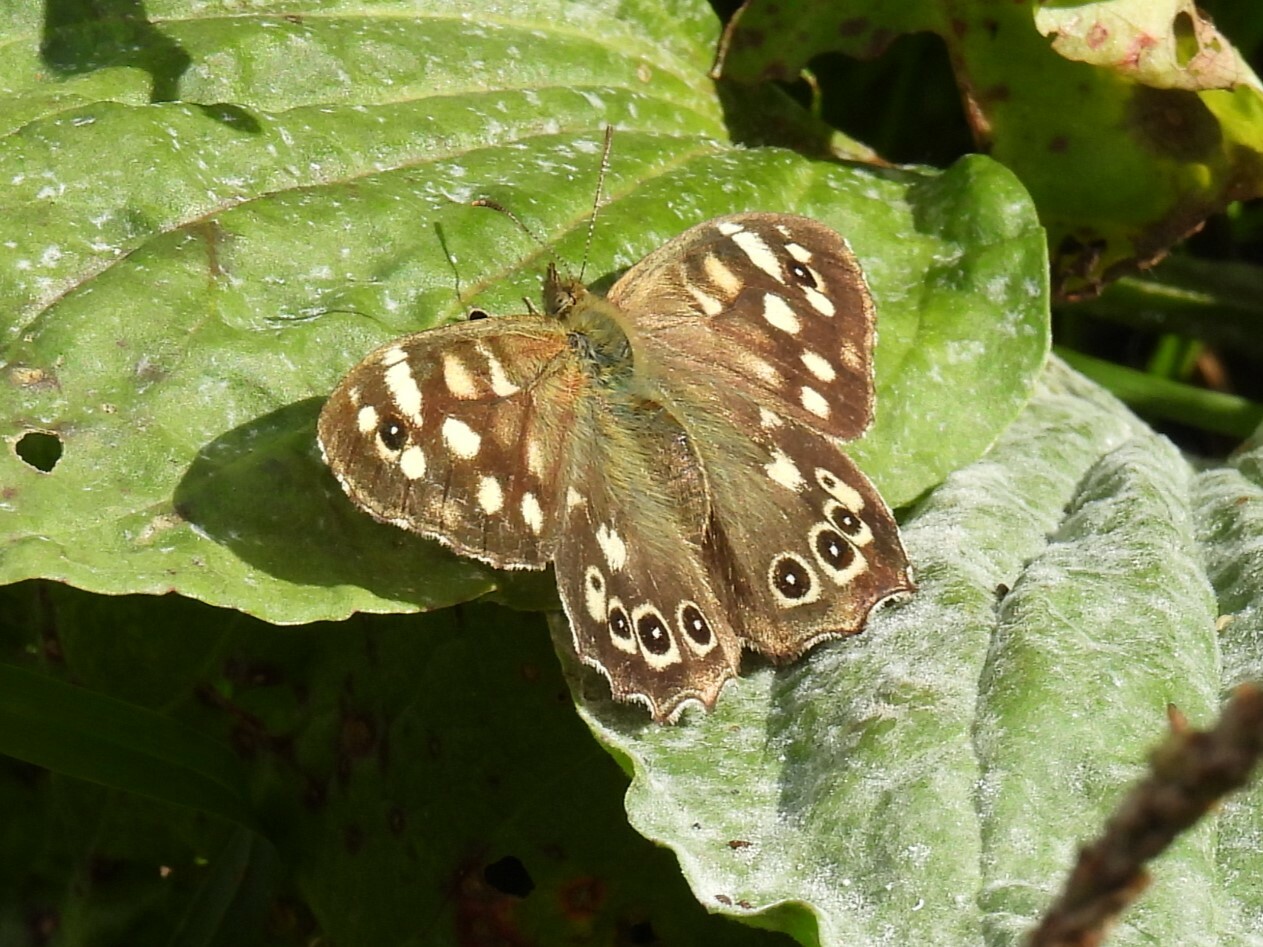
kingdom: Animalia
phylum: Arthropoda
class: Insecta
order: Lepidoptera
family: Nymphalidae
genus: Pararge
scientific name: Pararge aegeria
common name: Speckled wood
